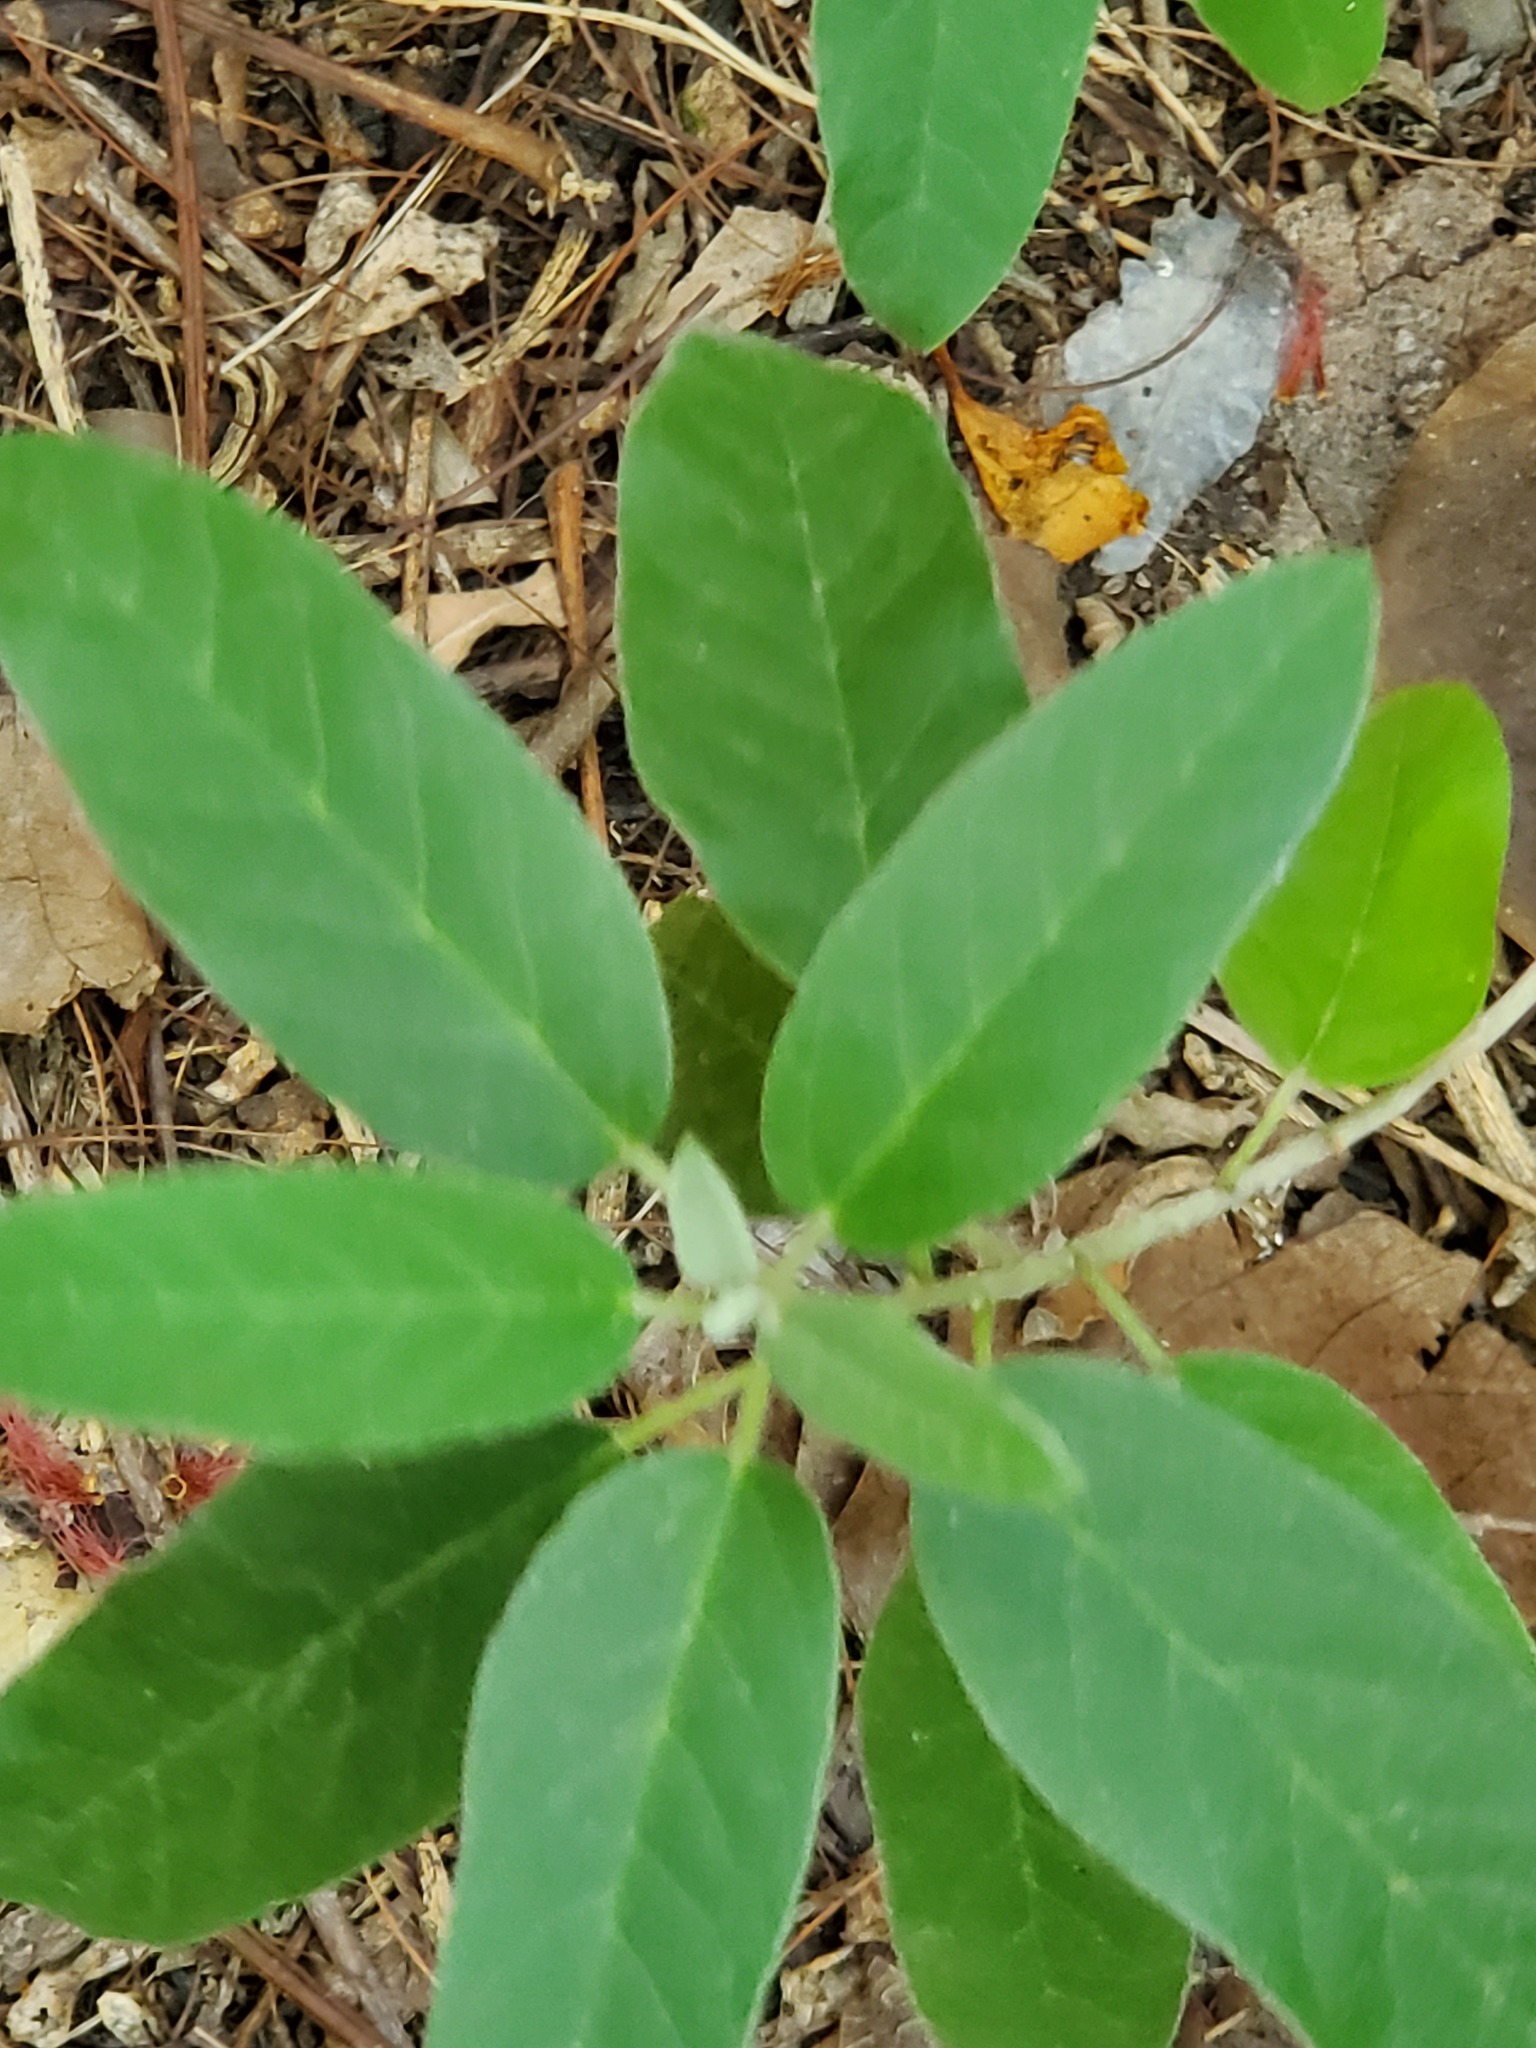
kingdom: Plantae
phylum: Tracheophyta
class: Magnoliopsida
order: Malpighiales
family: Euphorbiaceae
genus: Croton
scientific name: Croton incanus
